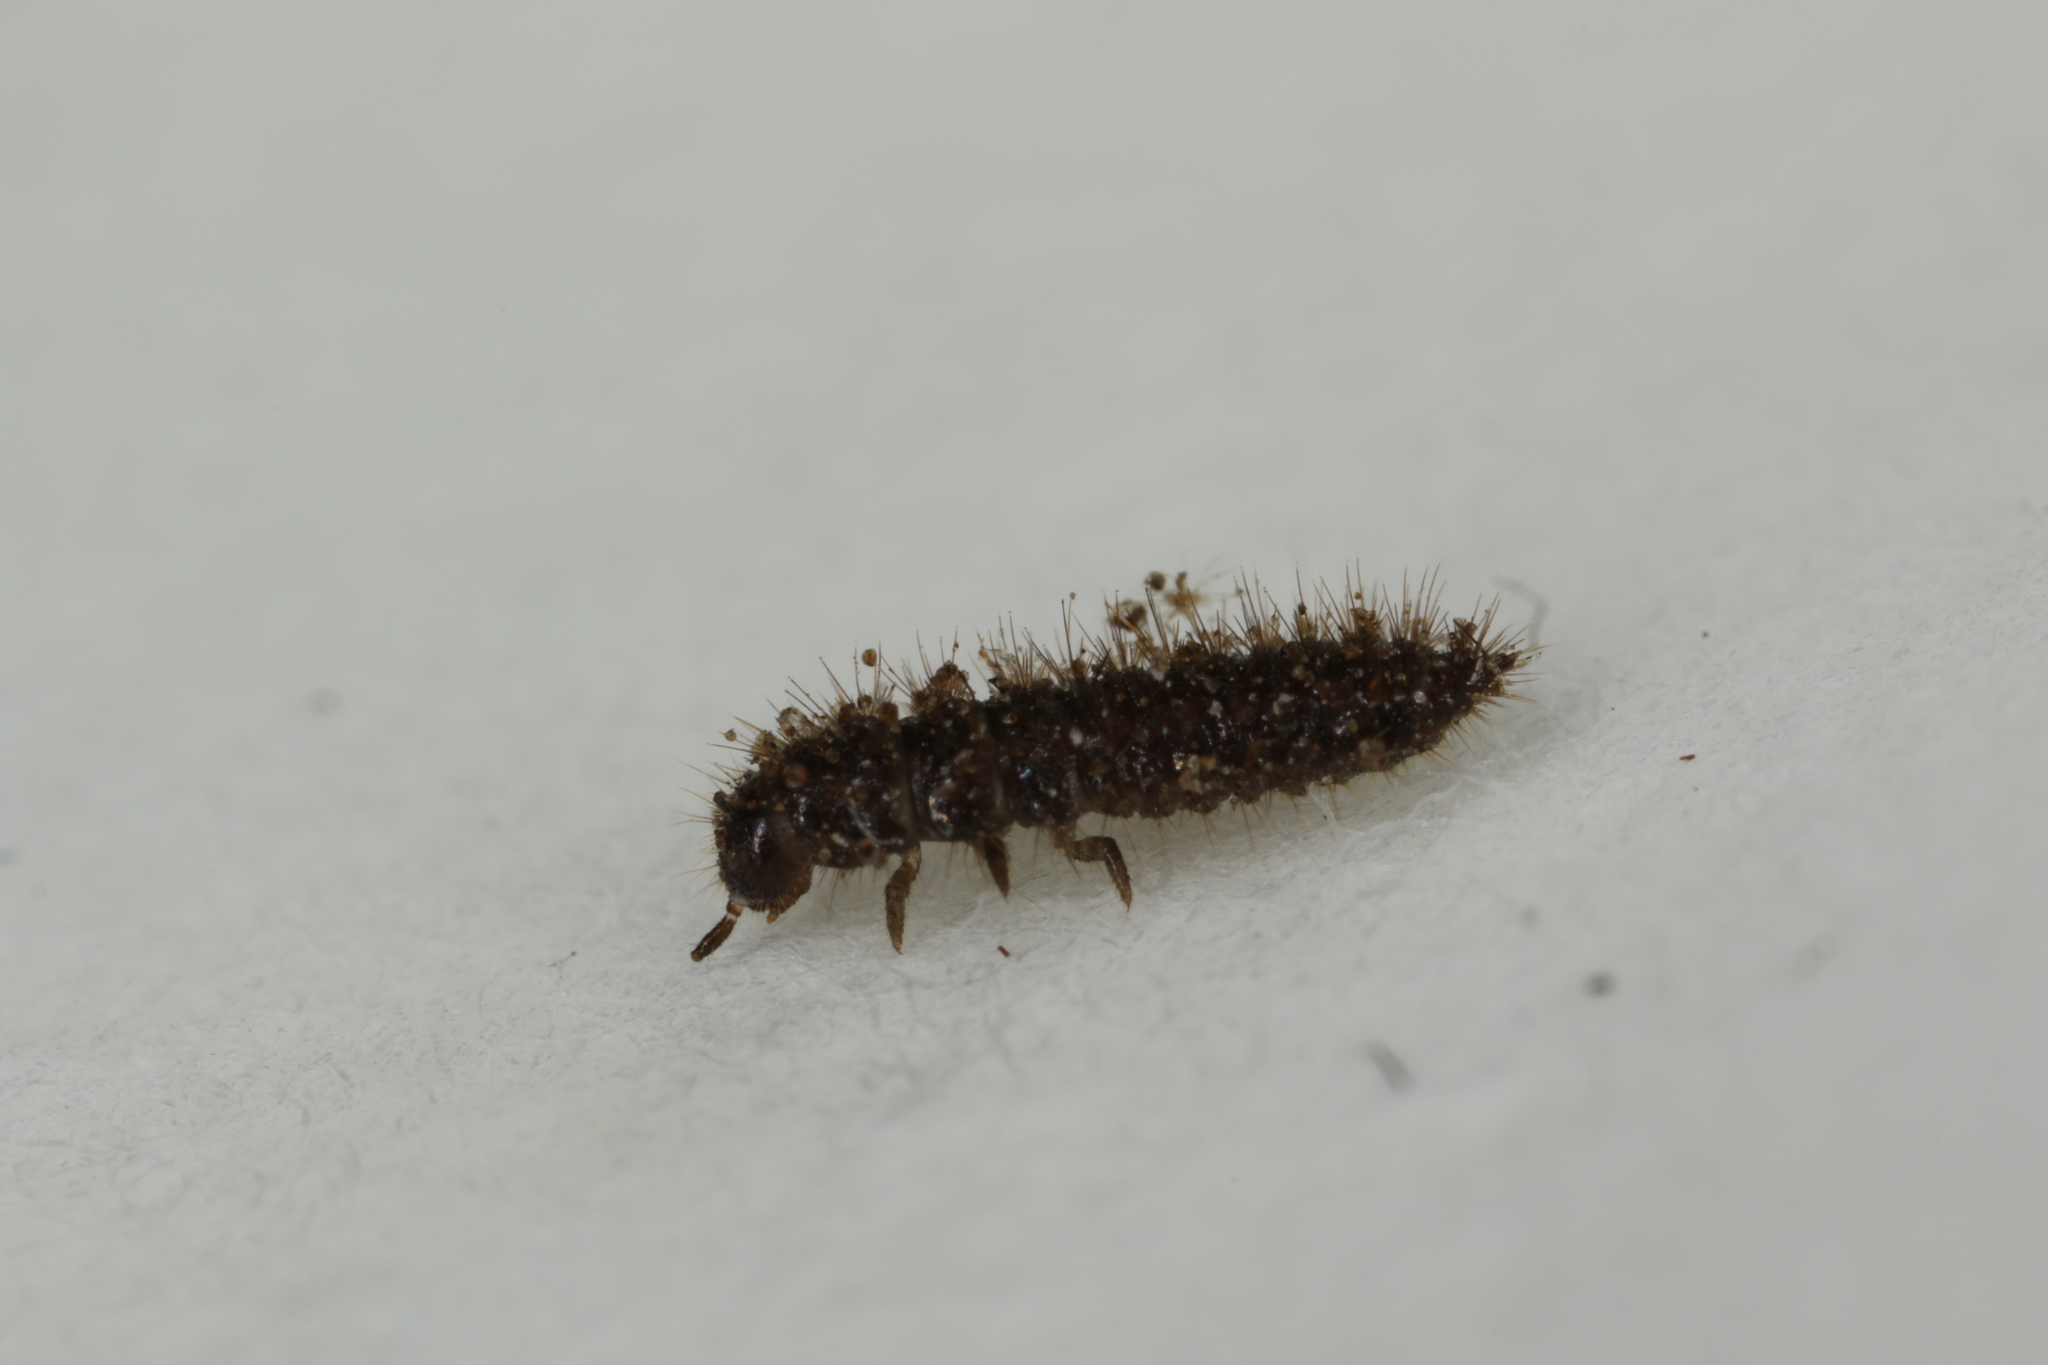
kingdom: Animalia
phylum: Arthropoda
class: Insecta
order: Coleoptera
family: Tenebrionidae
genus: Lagria
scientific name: Lagria hirta
